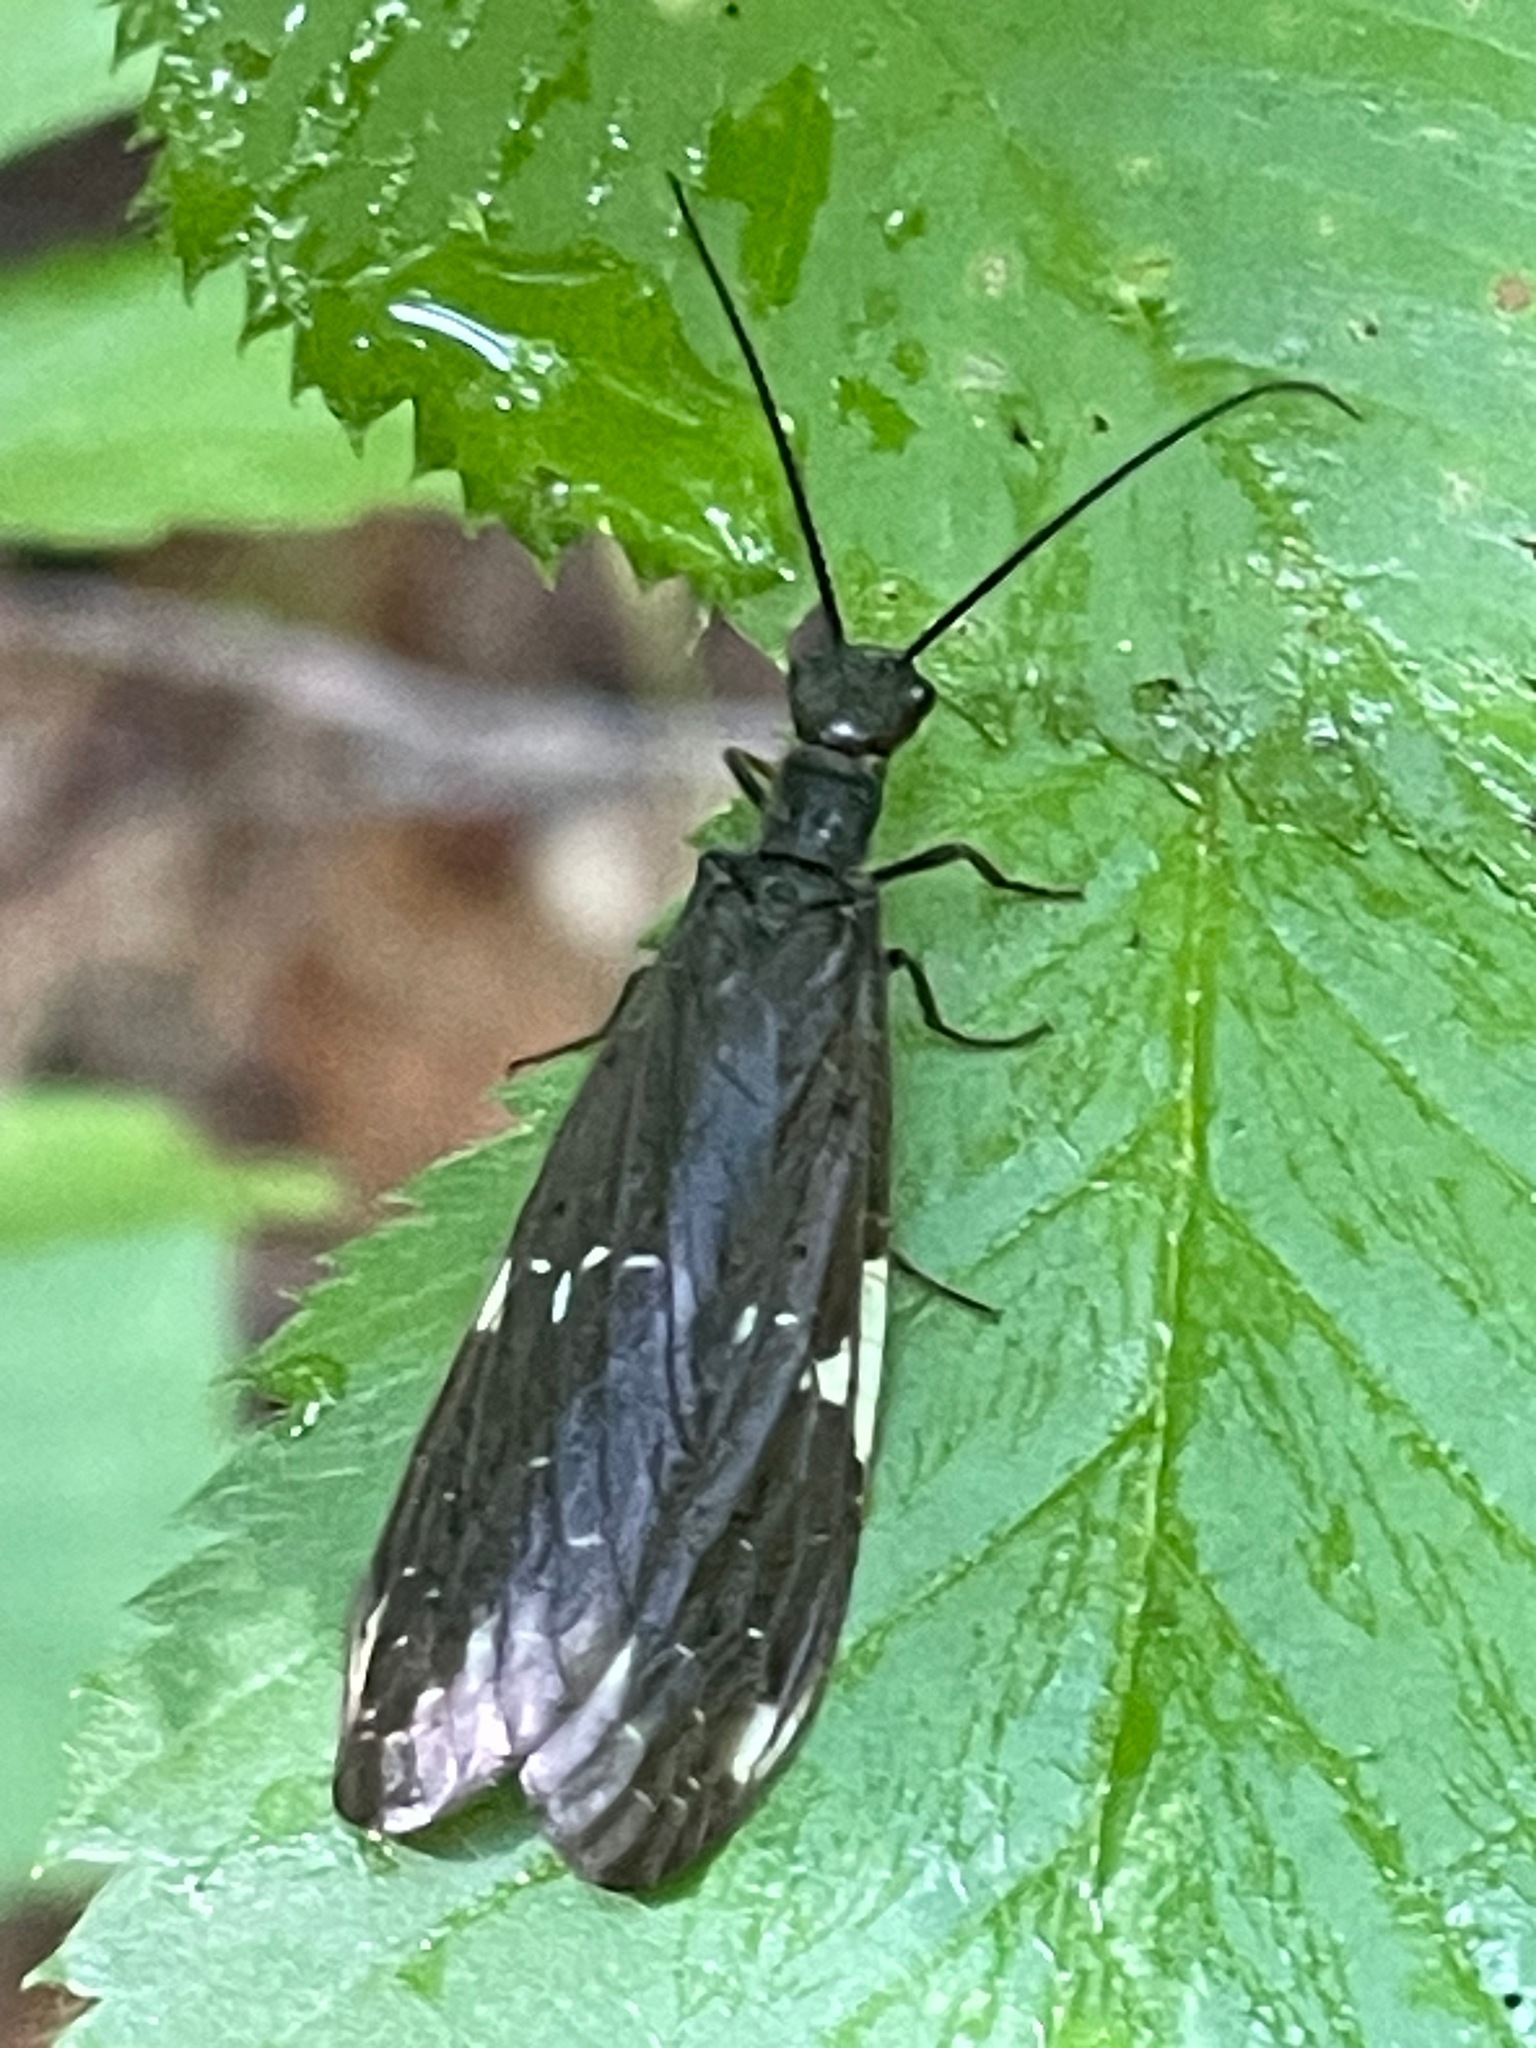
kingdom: Animalia
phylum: Arthropoda
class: Insecta
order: Megaloptera
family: Corydalidae
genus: Nigronia
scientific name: Nigronia serricornis
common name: Serrate dark fishfly
